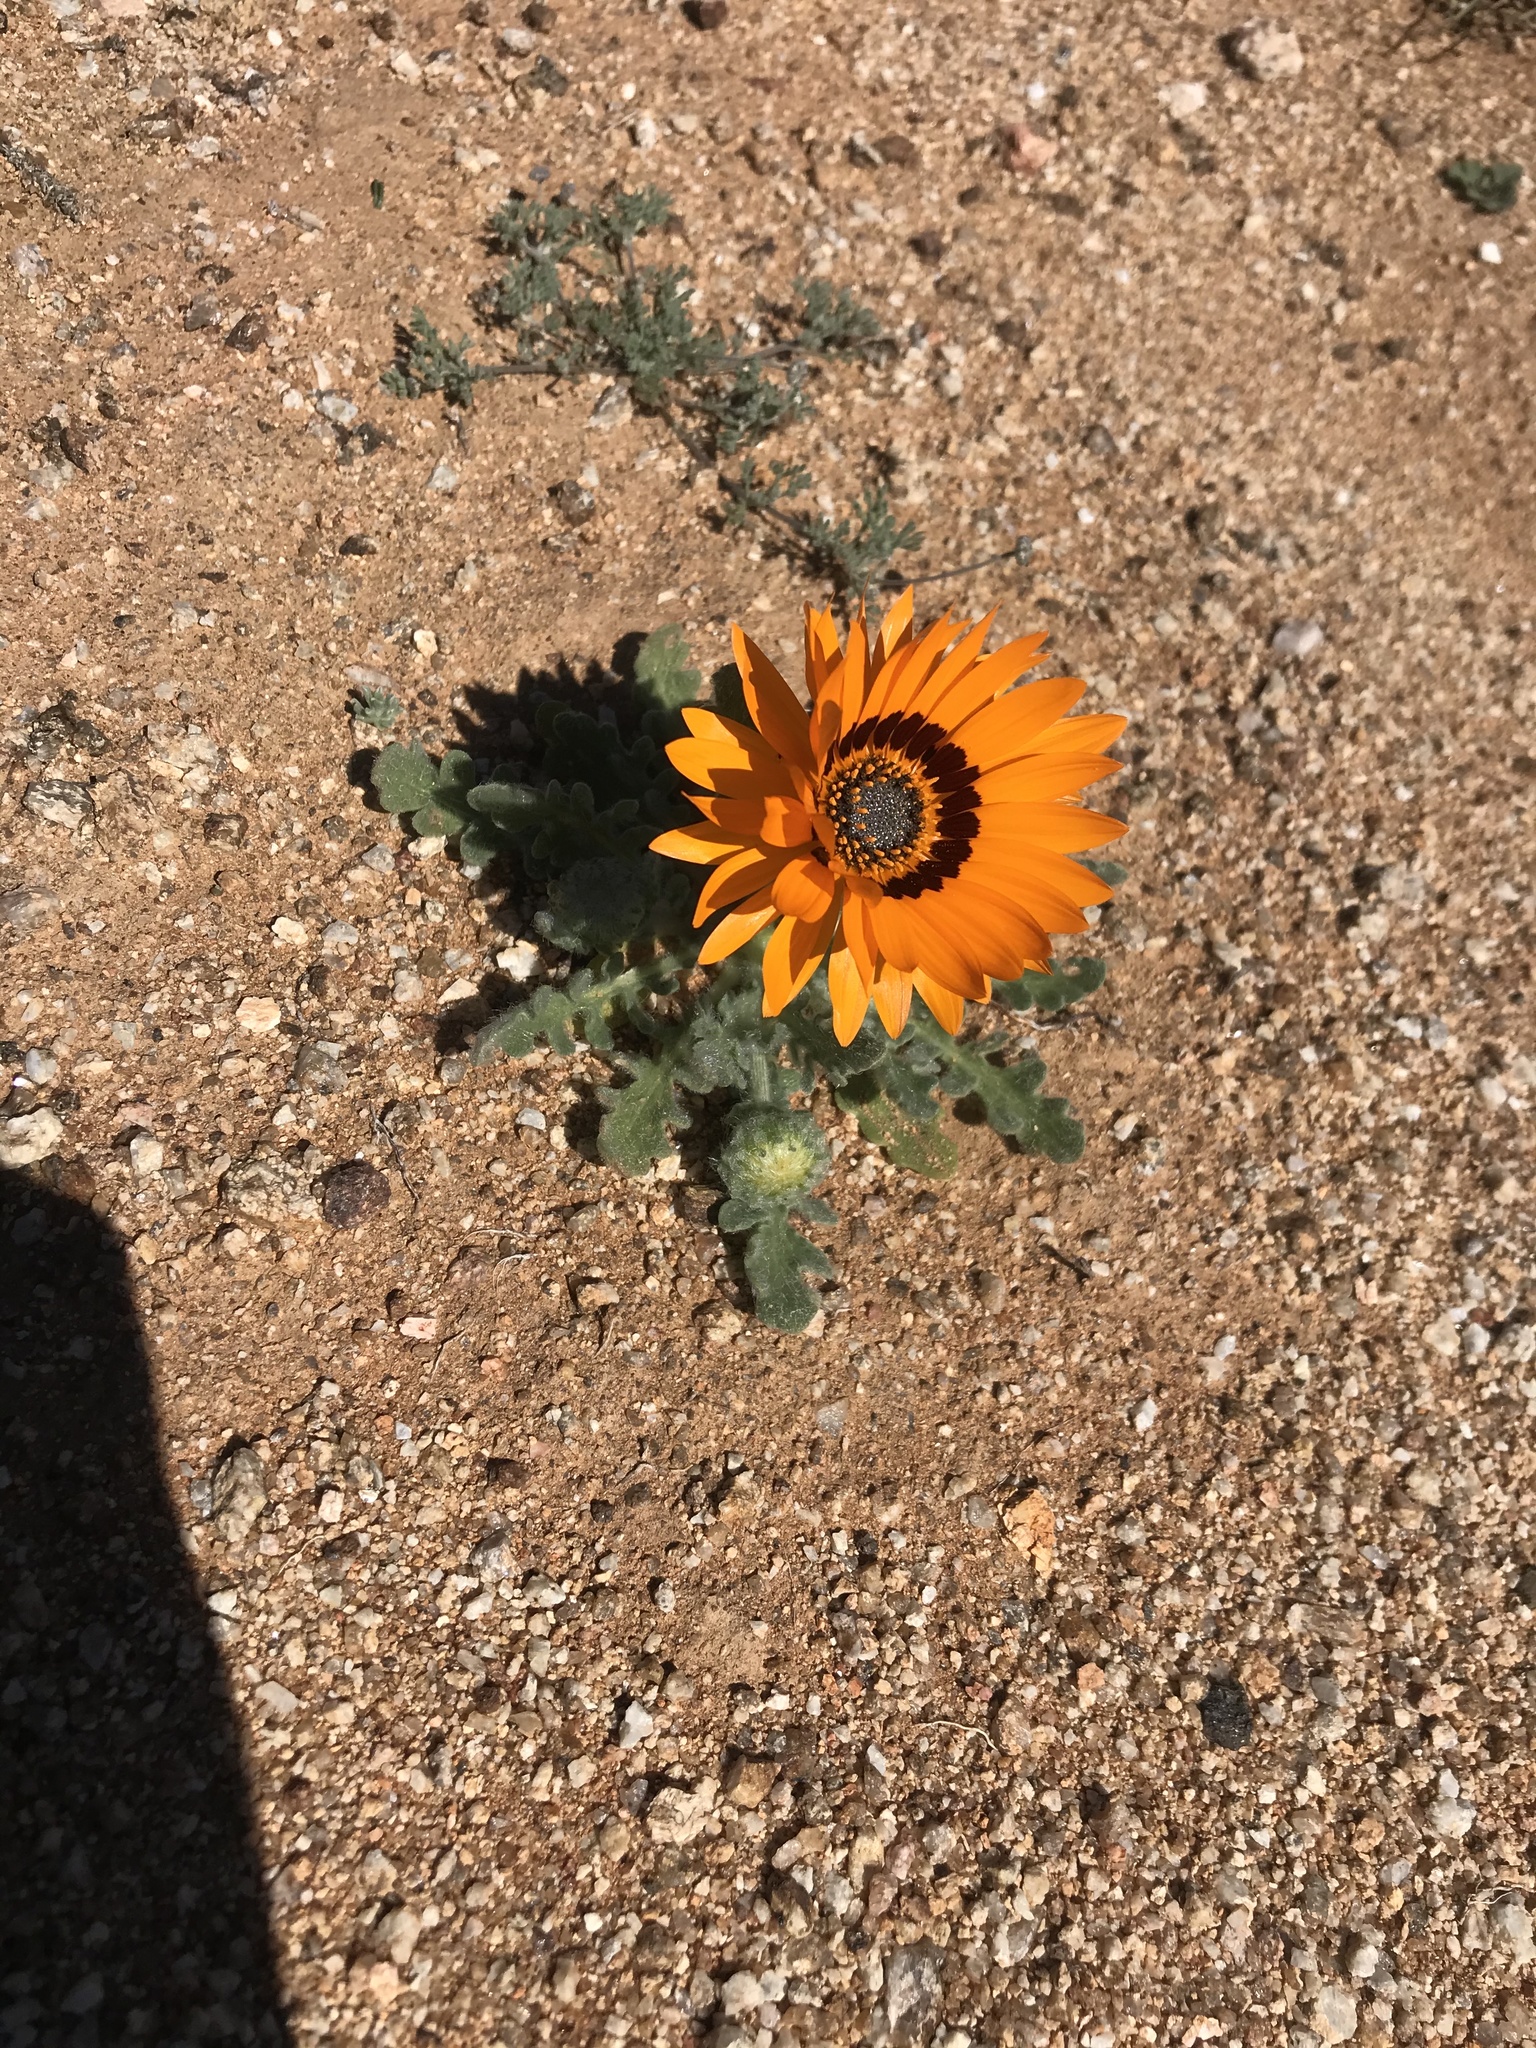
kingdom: Plantae
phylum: Tracheophyta
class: Magnoliopsida
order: Asterales
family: Asteraceae
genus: Arctotis
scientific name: Arctotis fastuosa
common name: Monarch of the veld
